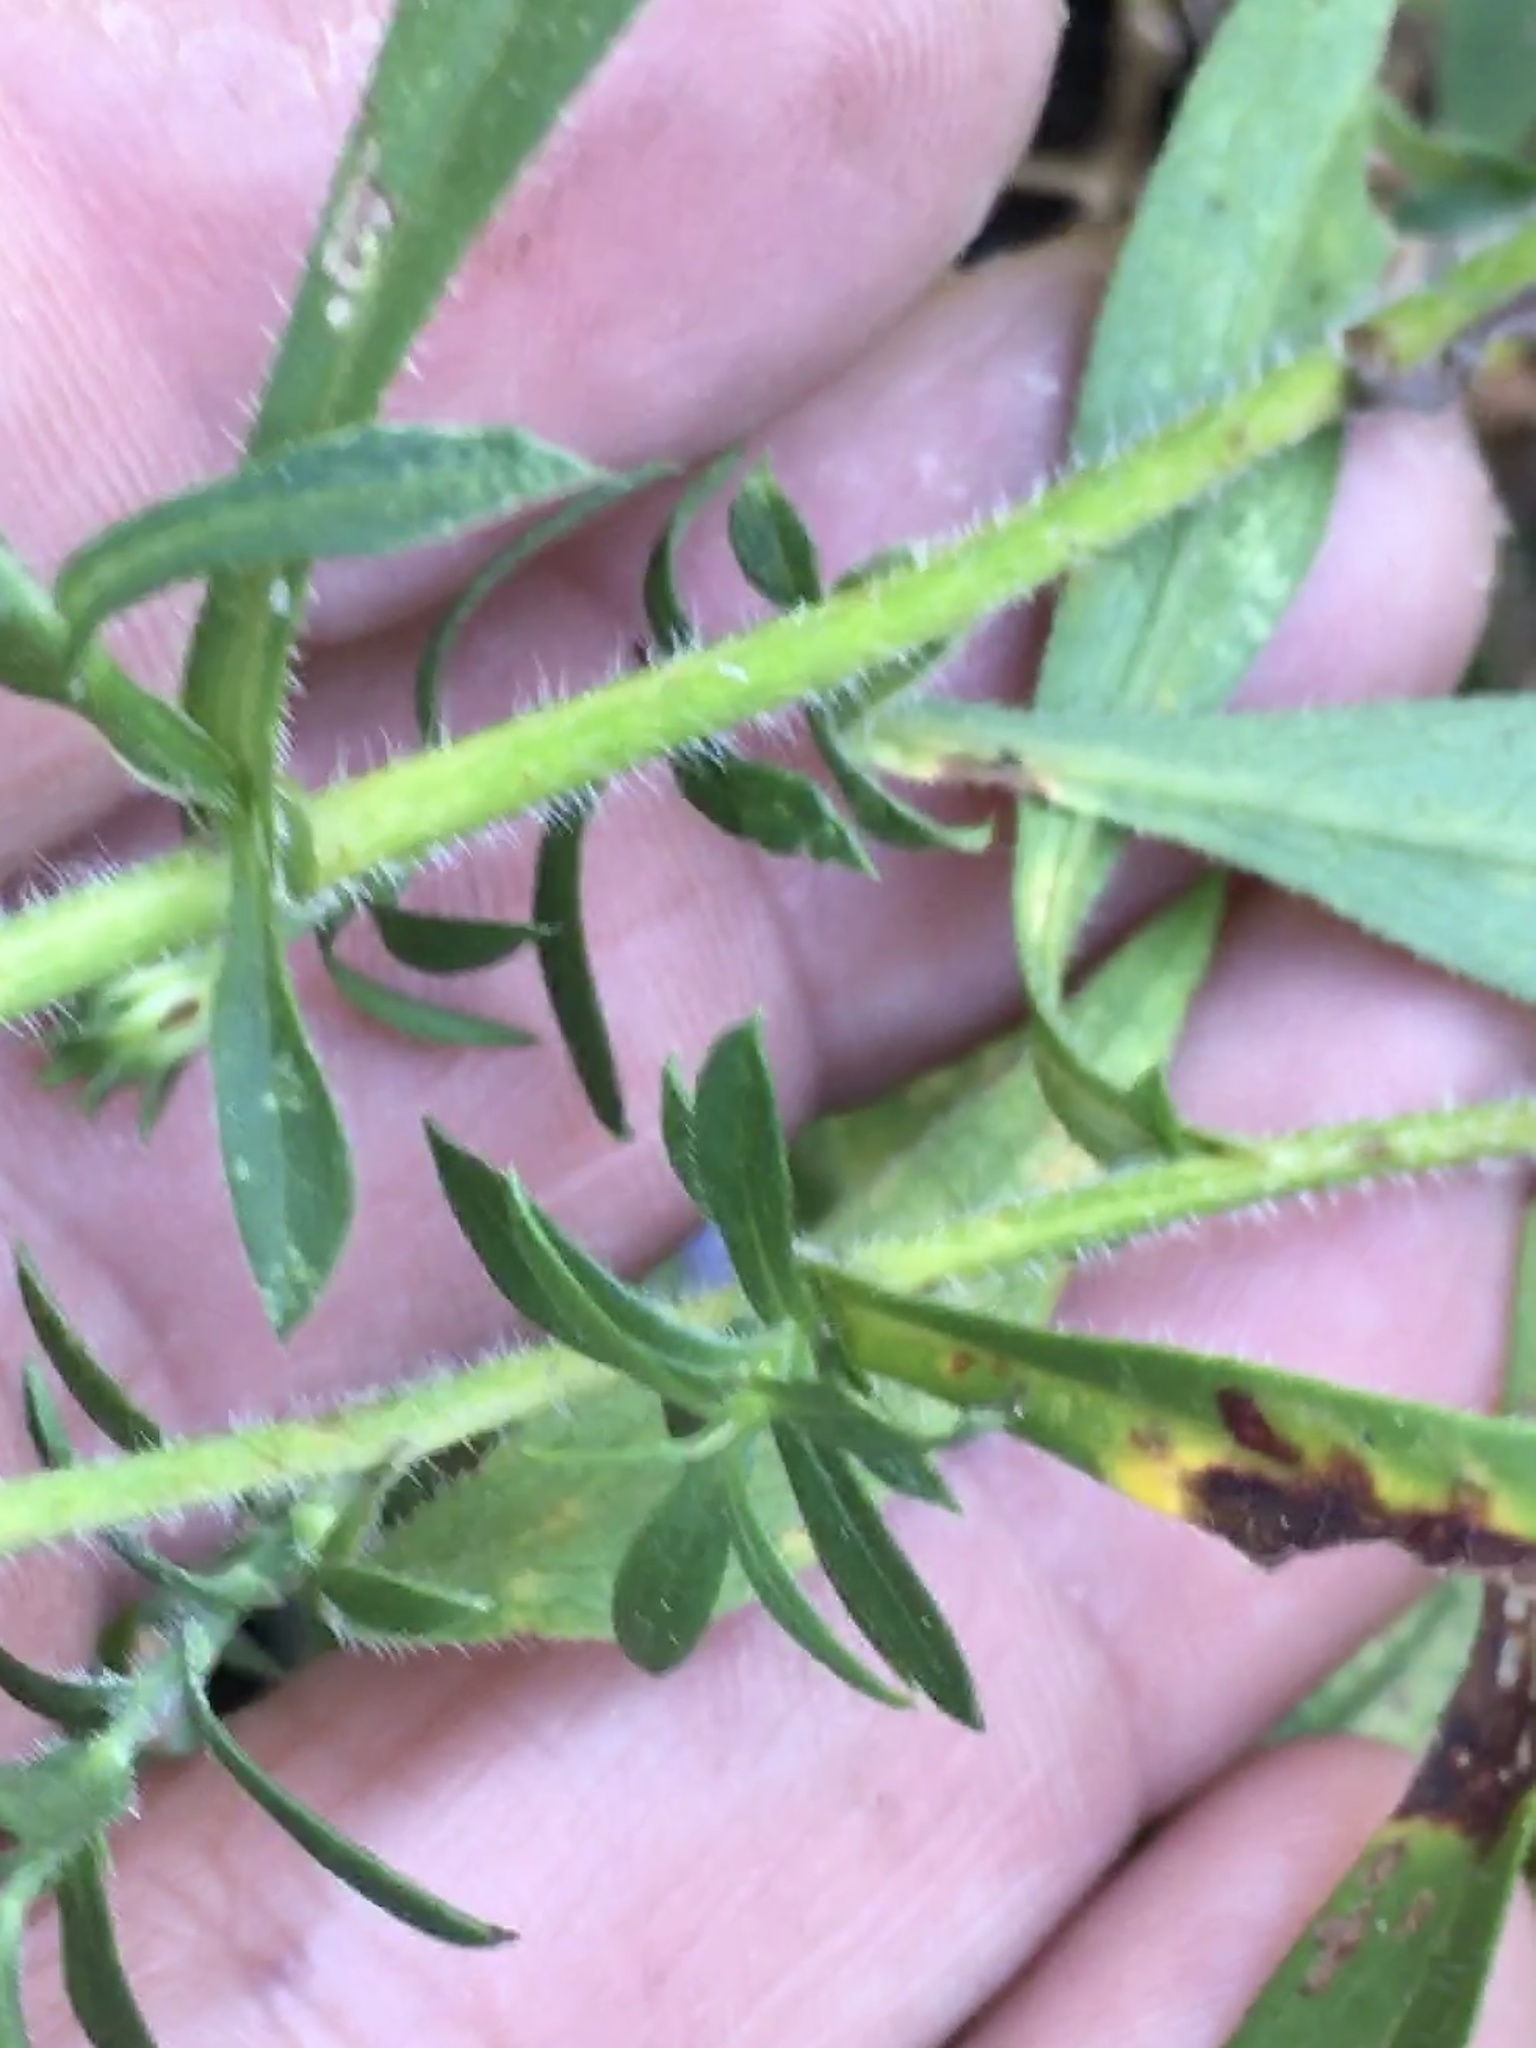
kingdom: Plantae
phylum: Tracheophyta
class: Magnoliopsida
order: Asterales
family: Asteraceae
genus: Symphyotrichum
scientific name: Symphyotrichum pilosum
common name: Awl aster
